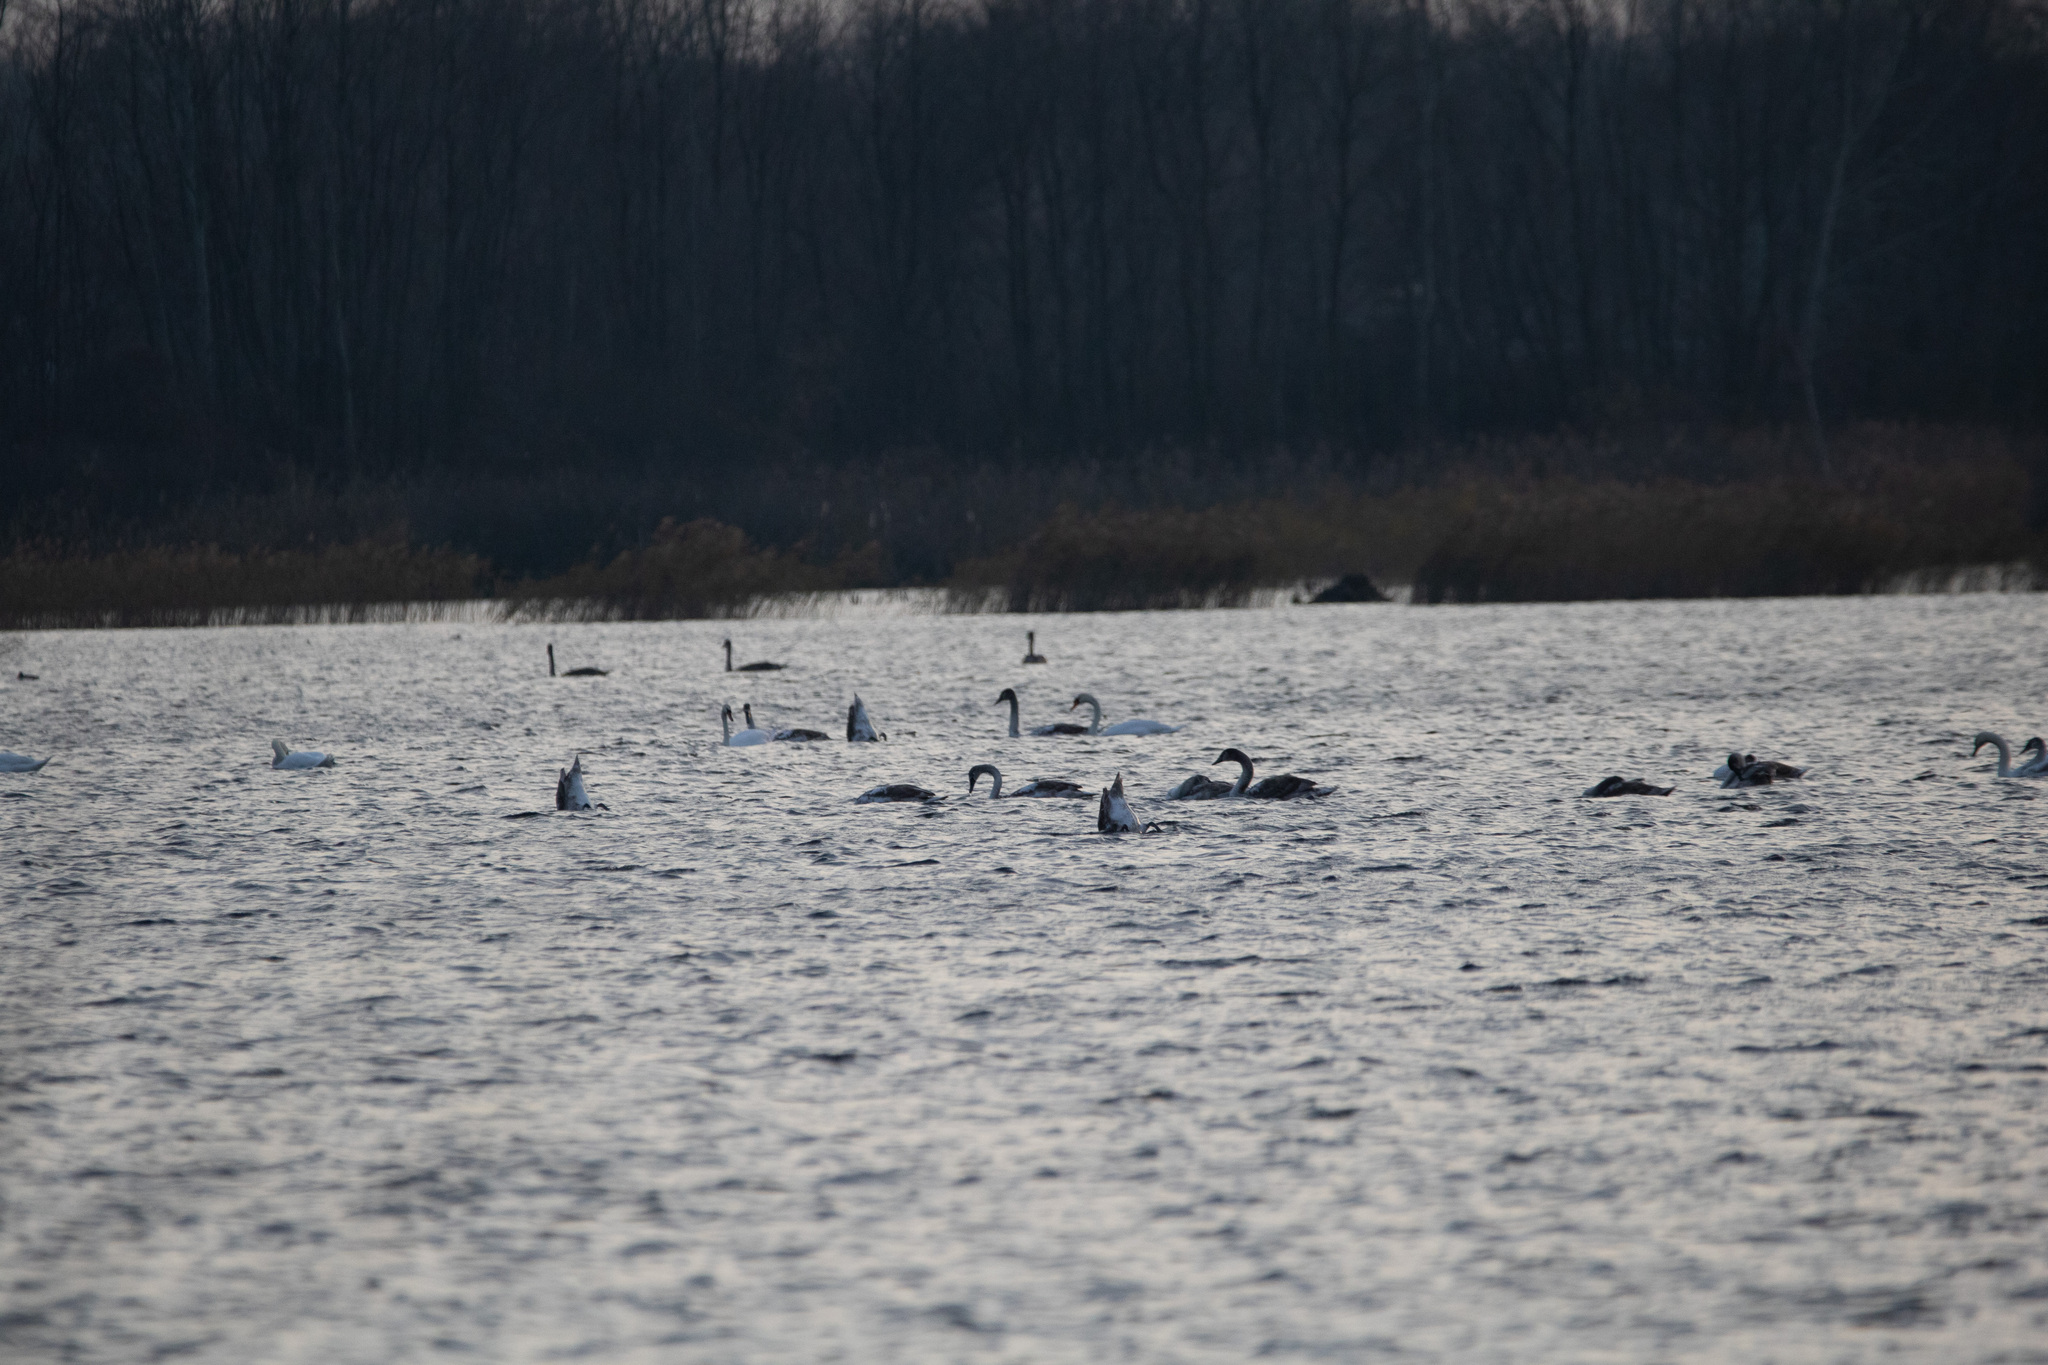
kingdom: Animalia
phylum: Chordata
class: Aves
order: Anseriformes
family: Anatidae
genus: Cygnus
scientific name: Cygnus olor
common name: Mute swan
